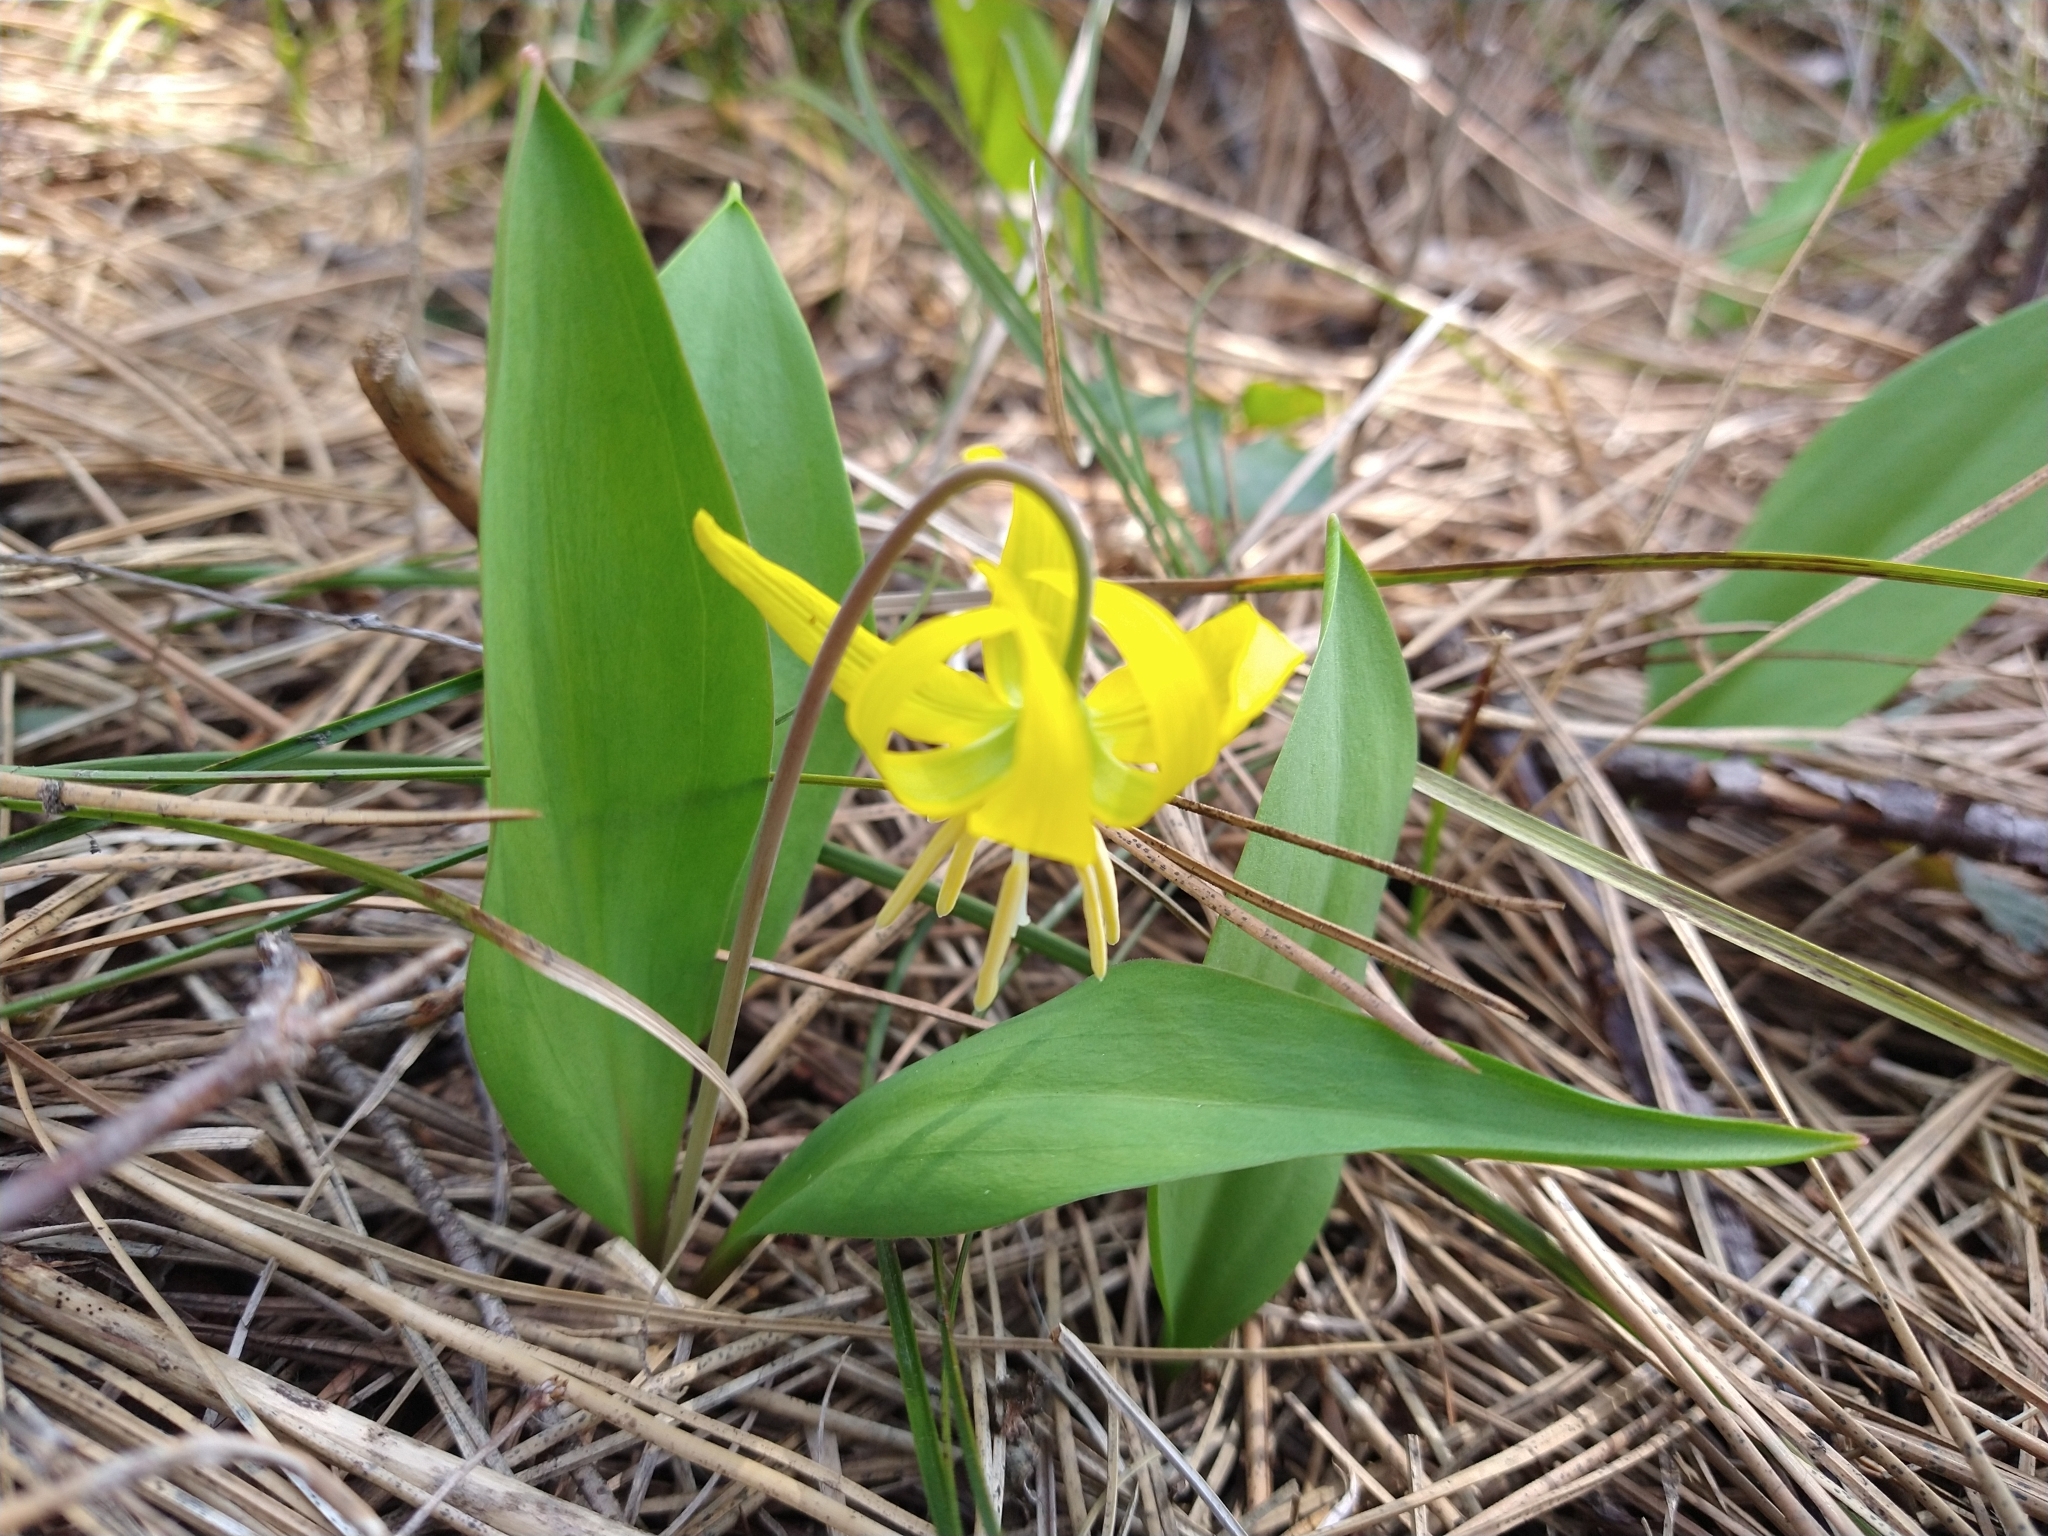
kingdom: Plantae
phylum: Tracheophyta
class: Liliopsida
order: Liliales
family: Liliaceae
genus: Erythronium
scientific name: Erythronium grandiflorum
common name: Avalanche-lily
